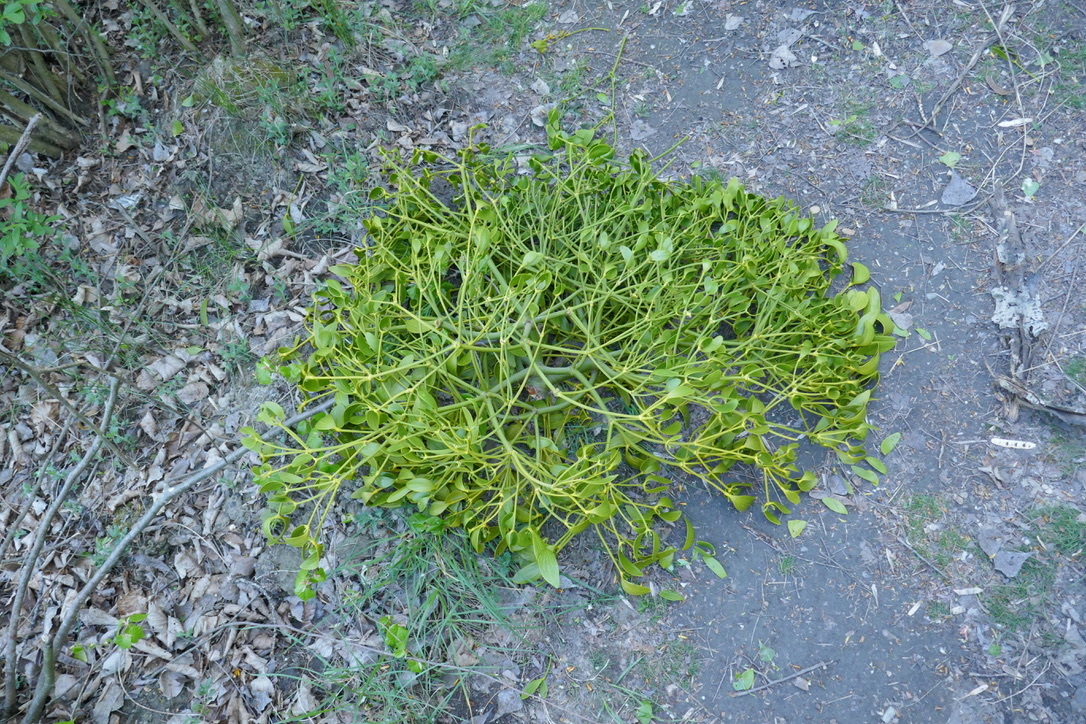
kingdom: Plantae
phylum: Tracheophyta
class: Magnoliopsida
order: Santalales
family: Viscaceae
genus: Viscum
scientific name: Viscum album
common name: Mistletoe
